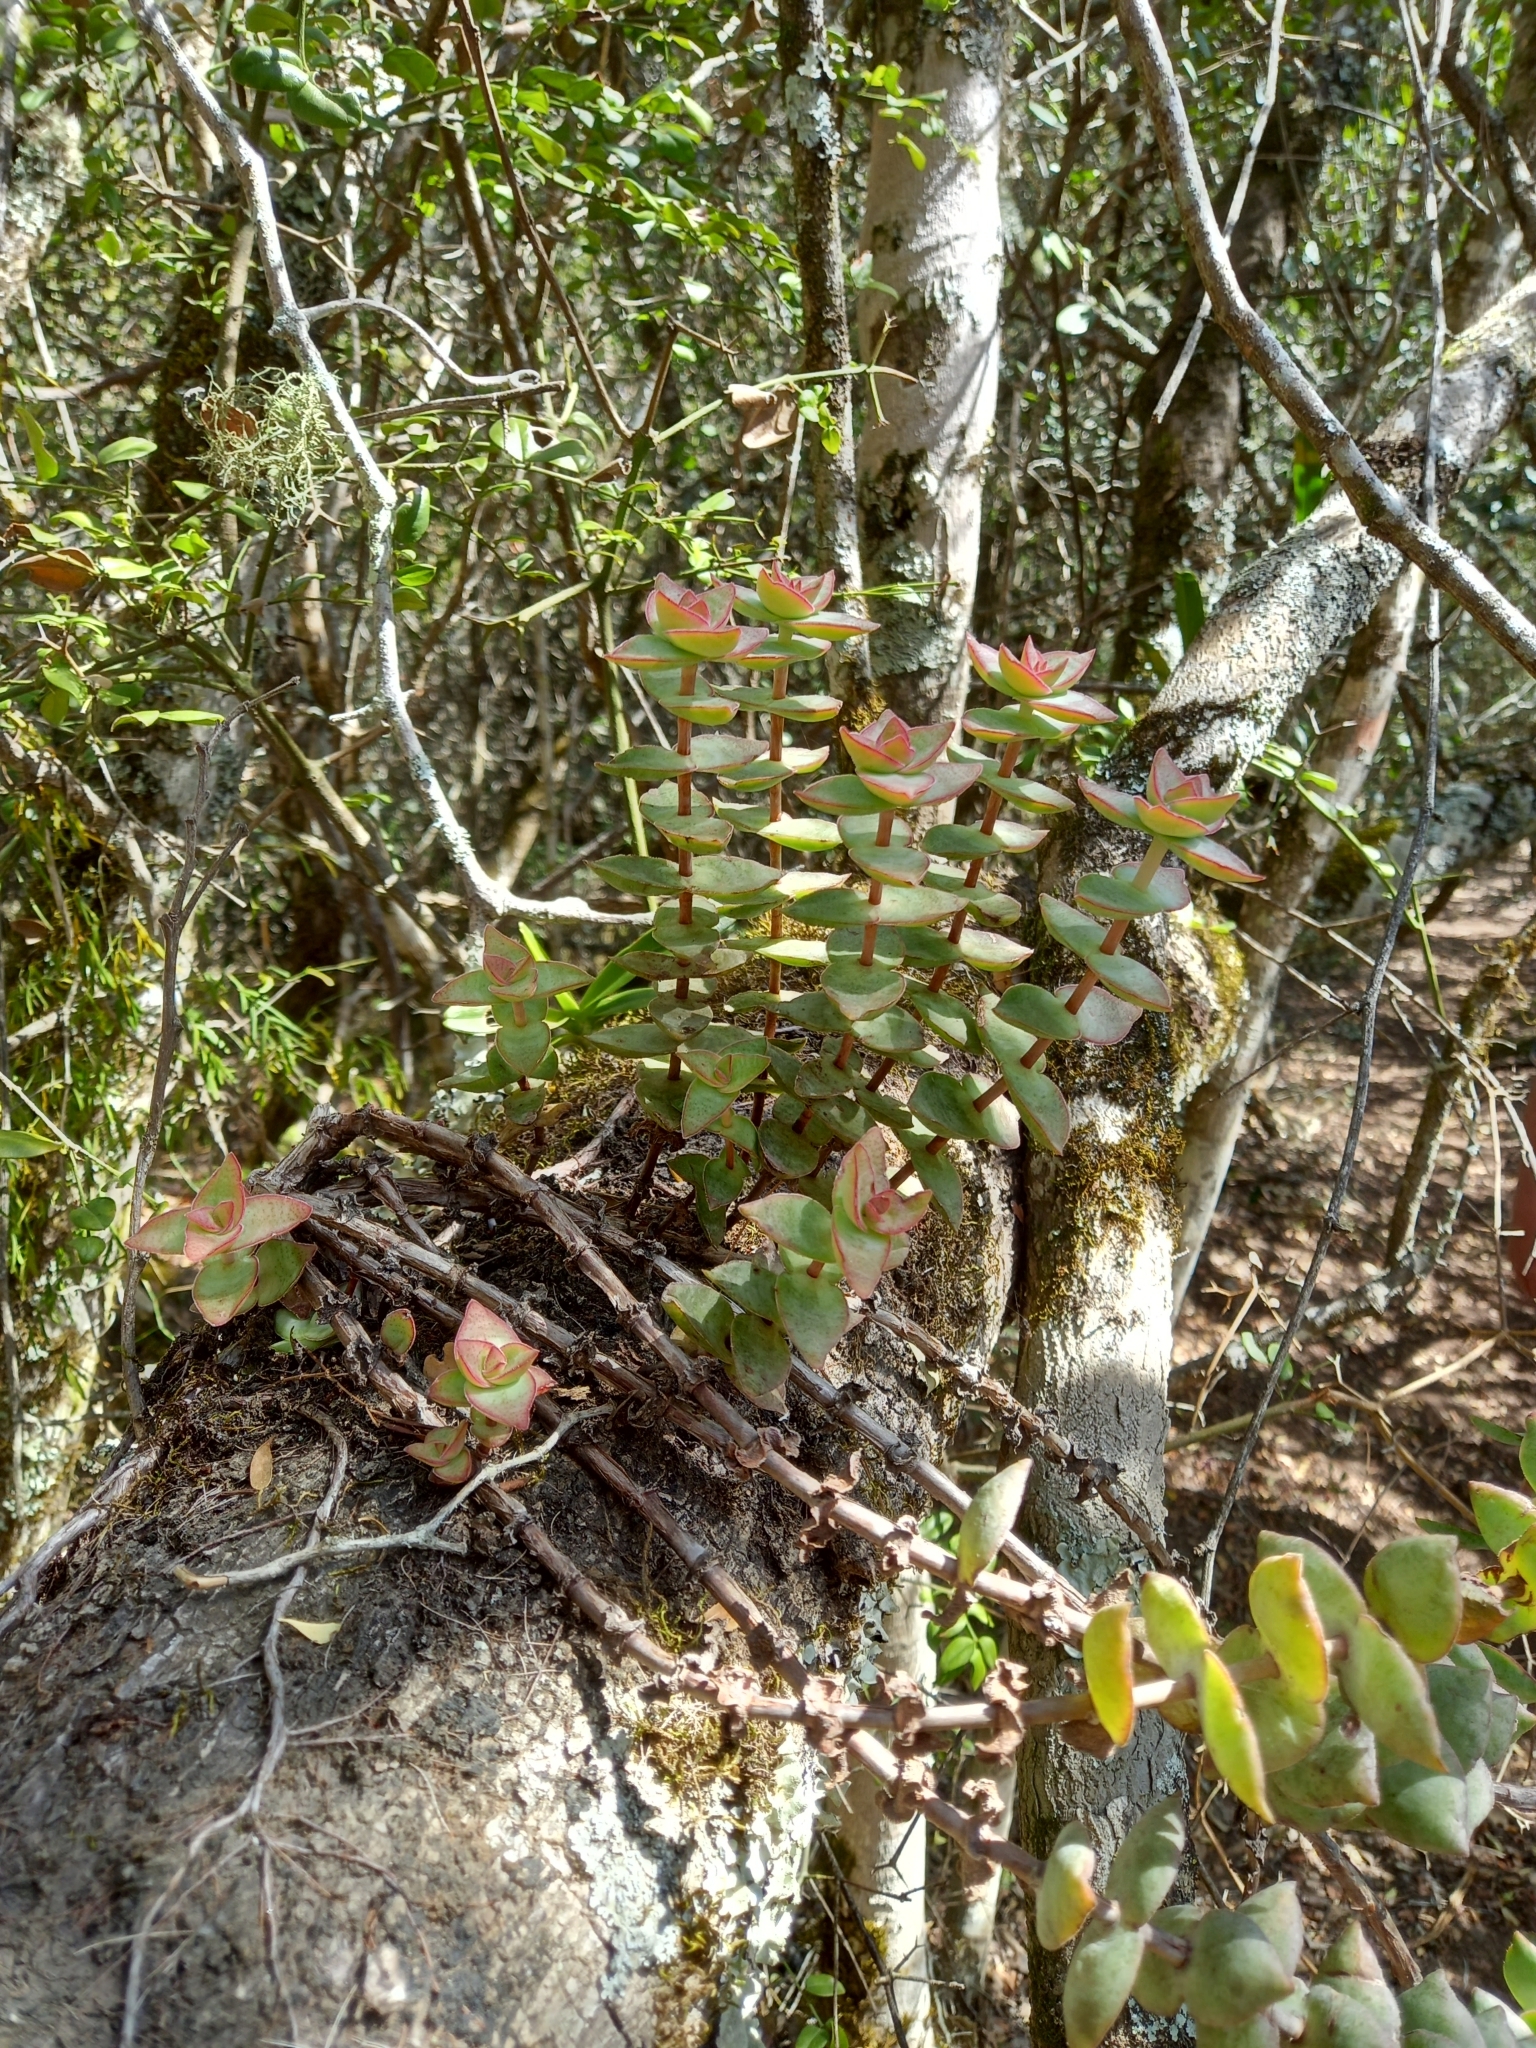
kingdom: Plantae
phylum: Tracheophyta
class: Magnoliopsida
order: Saxifragales
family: Crassulaceae
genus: Crassula
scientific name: Crassula perforata
